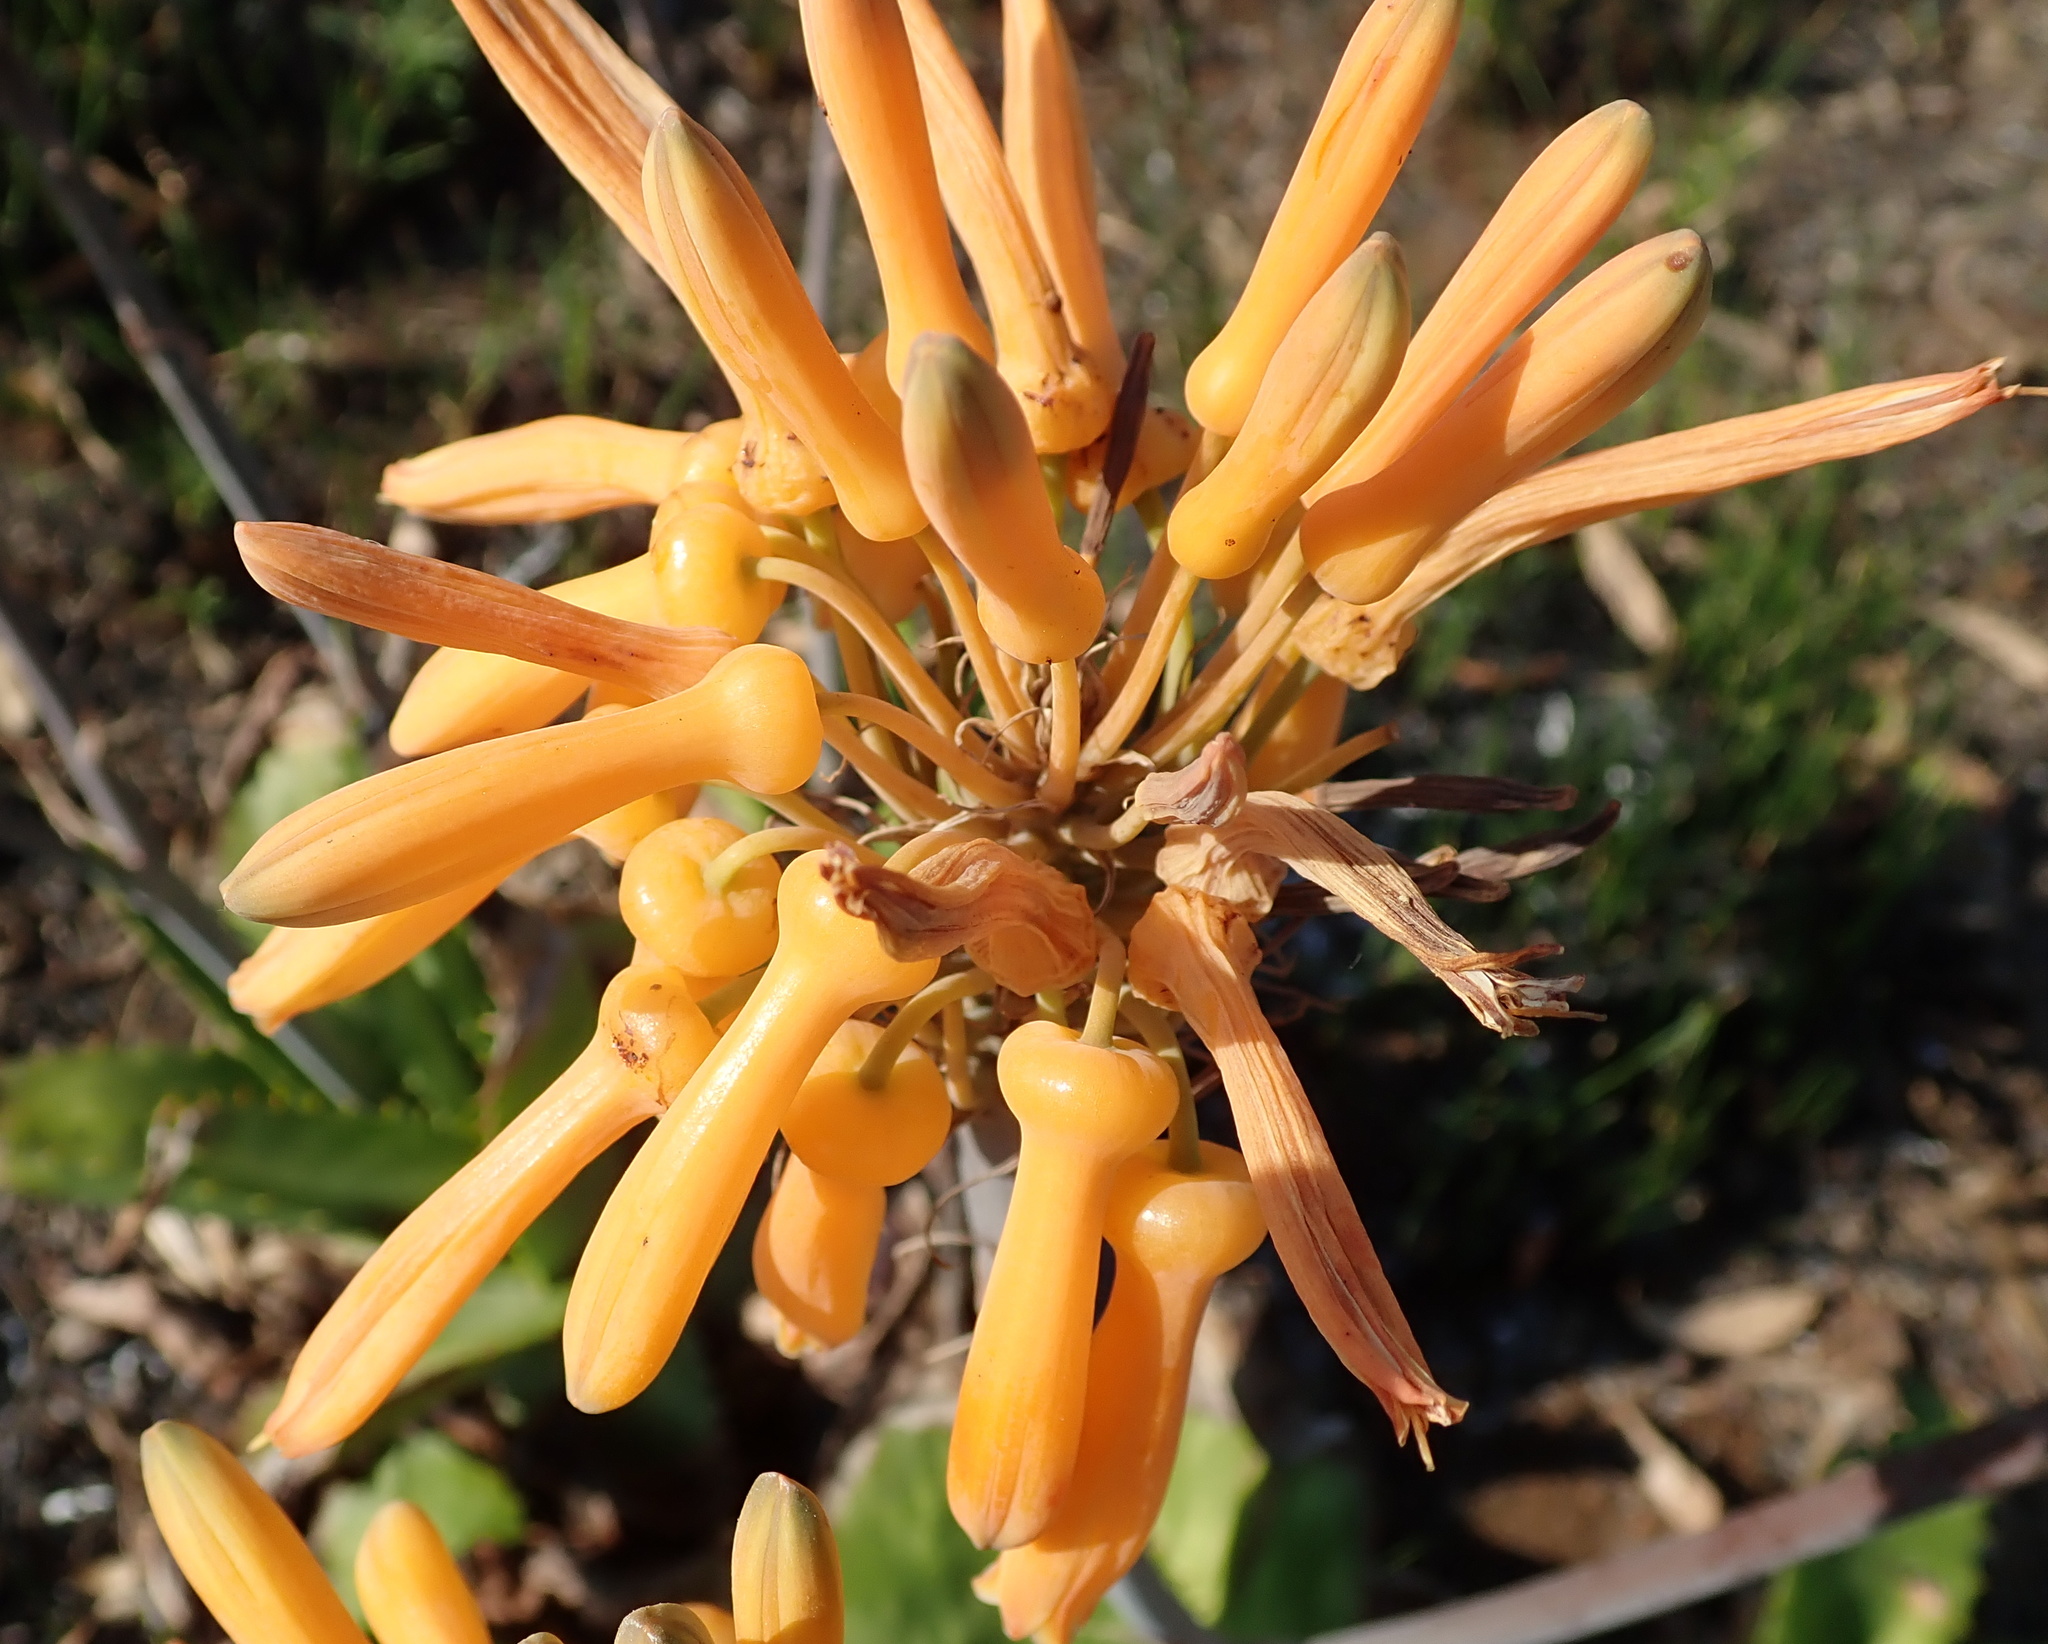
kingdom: Plantae
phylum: Tracheophyta
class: Liliopsida
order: Asparagales
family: Asphodelaceae
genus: Aloe
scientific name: Aloe maculata
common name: Broadleaf aloe
